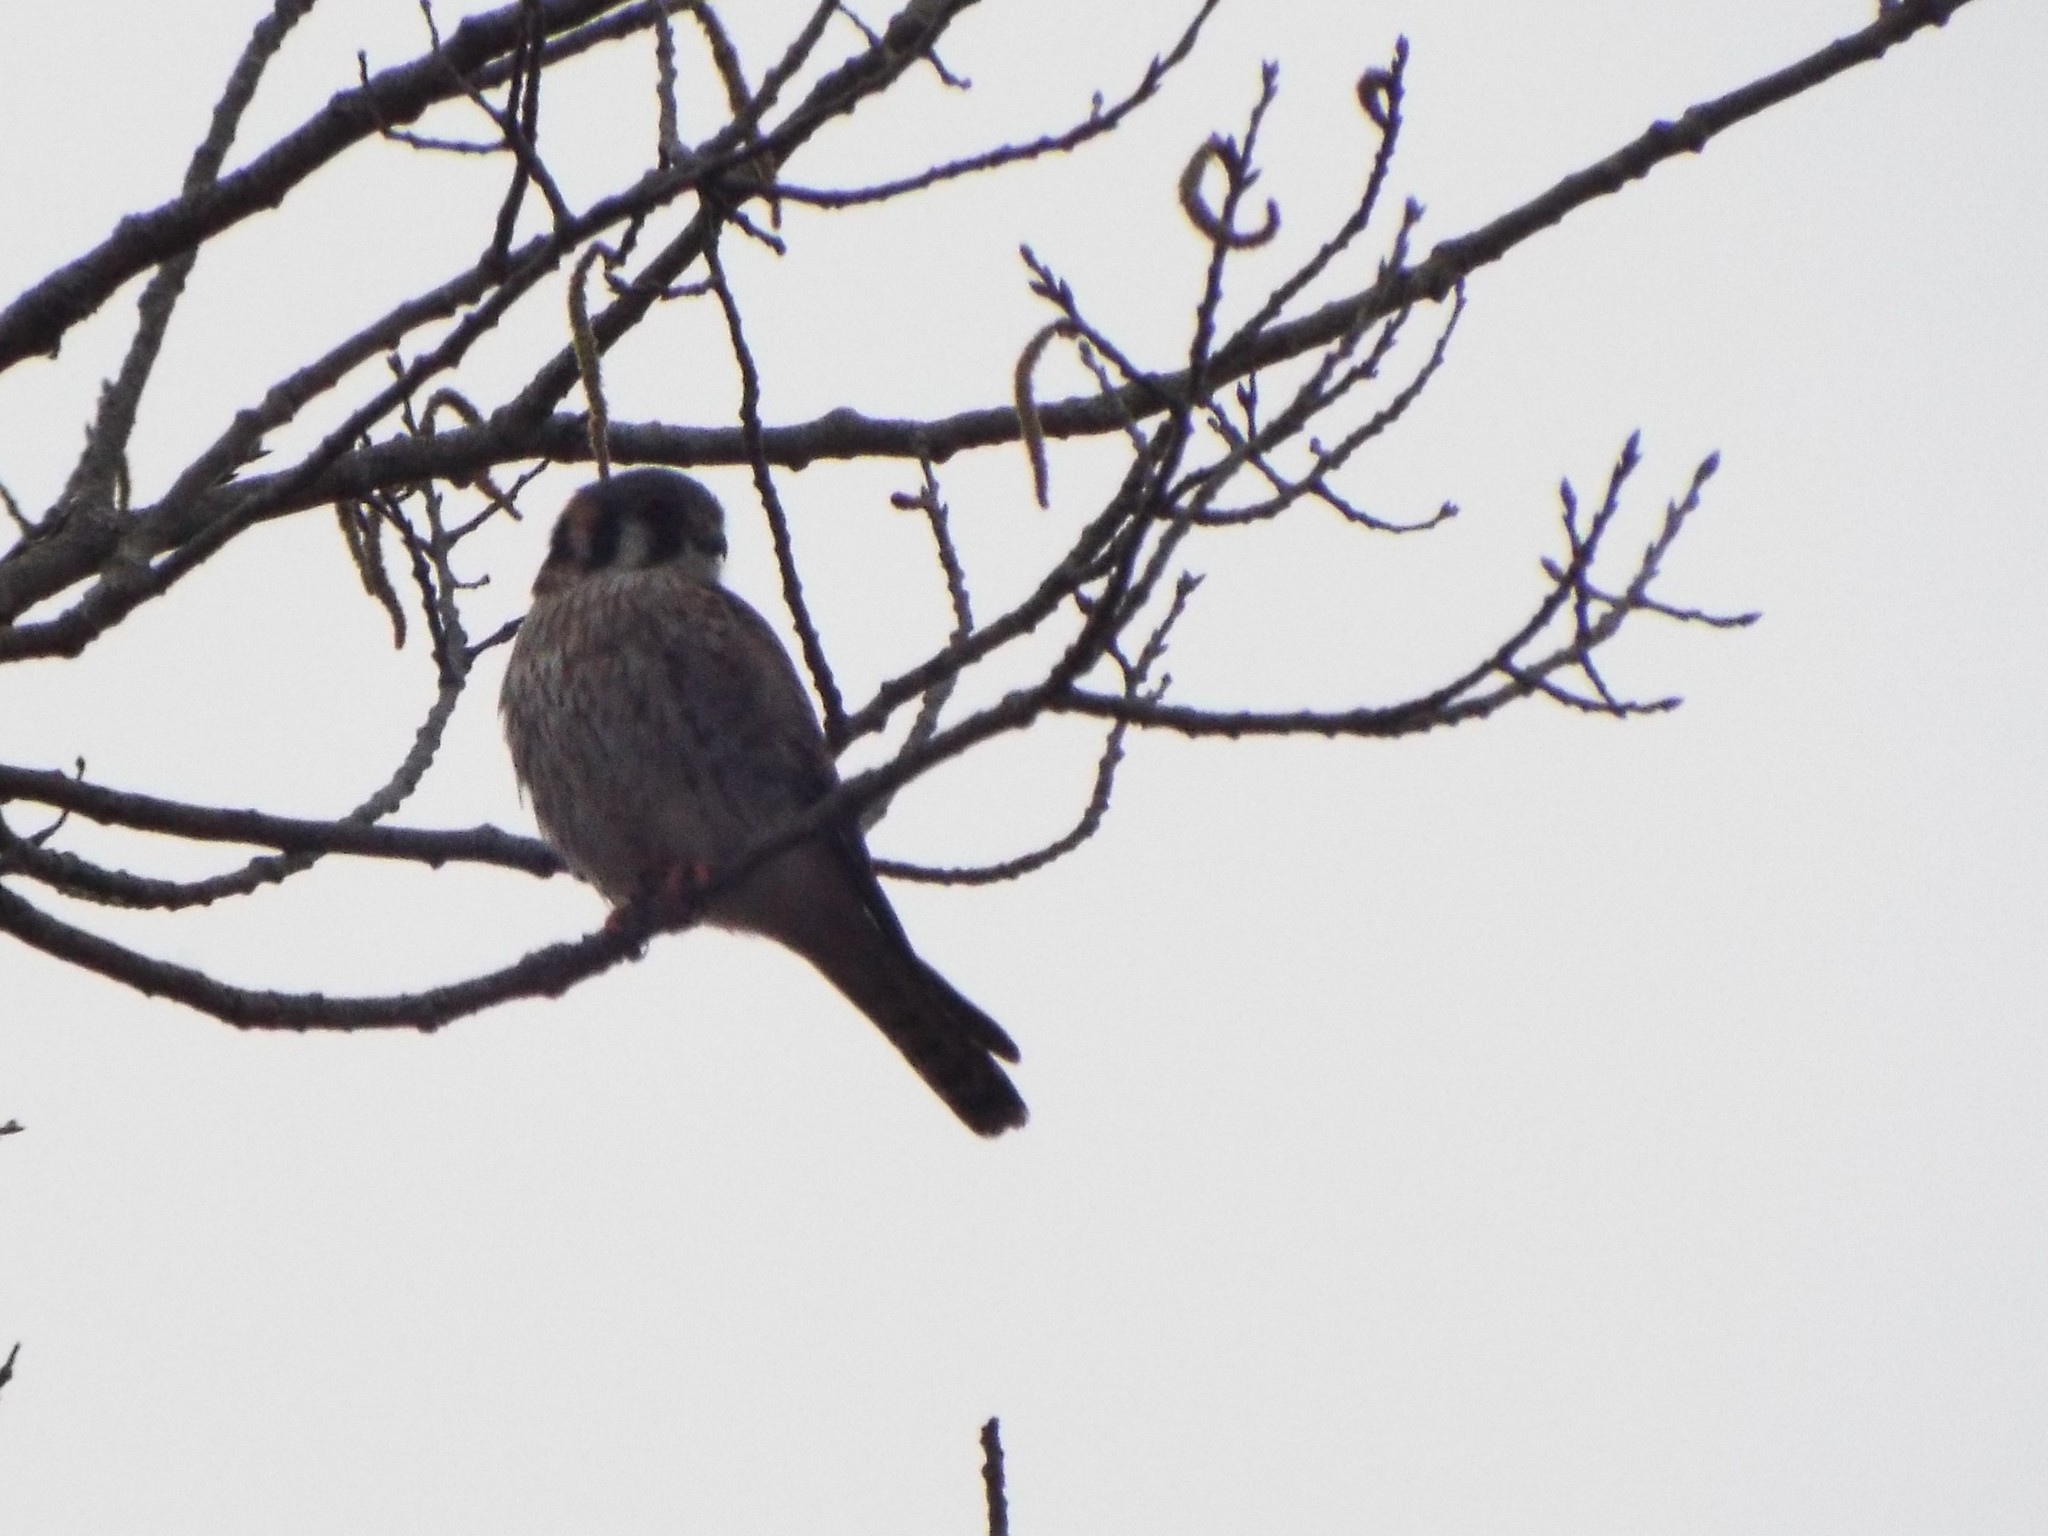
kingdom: Animalia
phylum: Chordata
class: Aves
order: Falconiformes
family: Falconidae
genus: Falco
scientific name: Falco sparverius
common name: American kestrel
